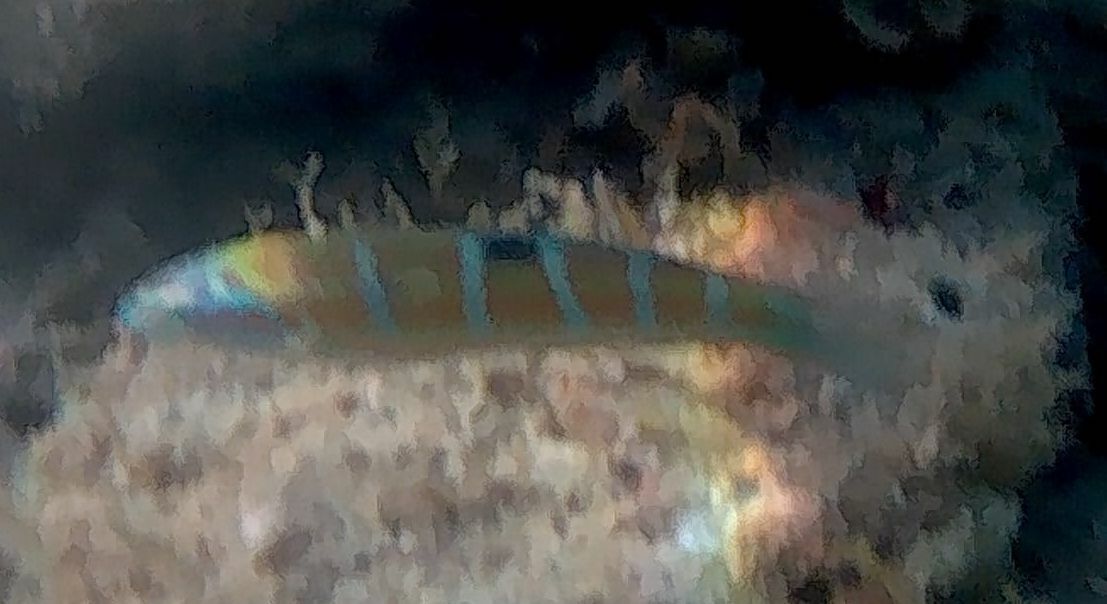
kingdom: Animalia
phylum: Chordata
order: Perciformes
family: Labridae
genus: Thalassoma
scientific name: Thalassoma pavo
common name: Ornate wrasse
